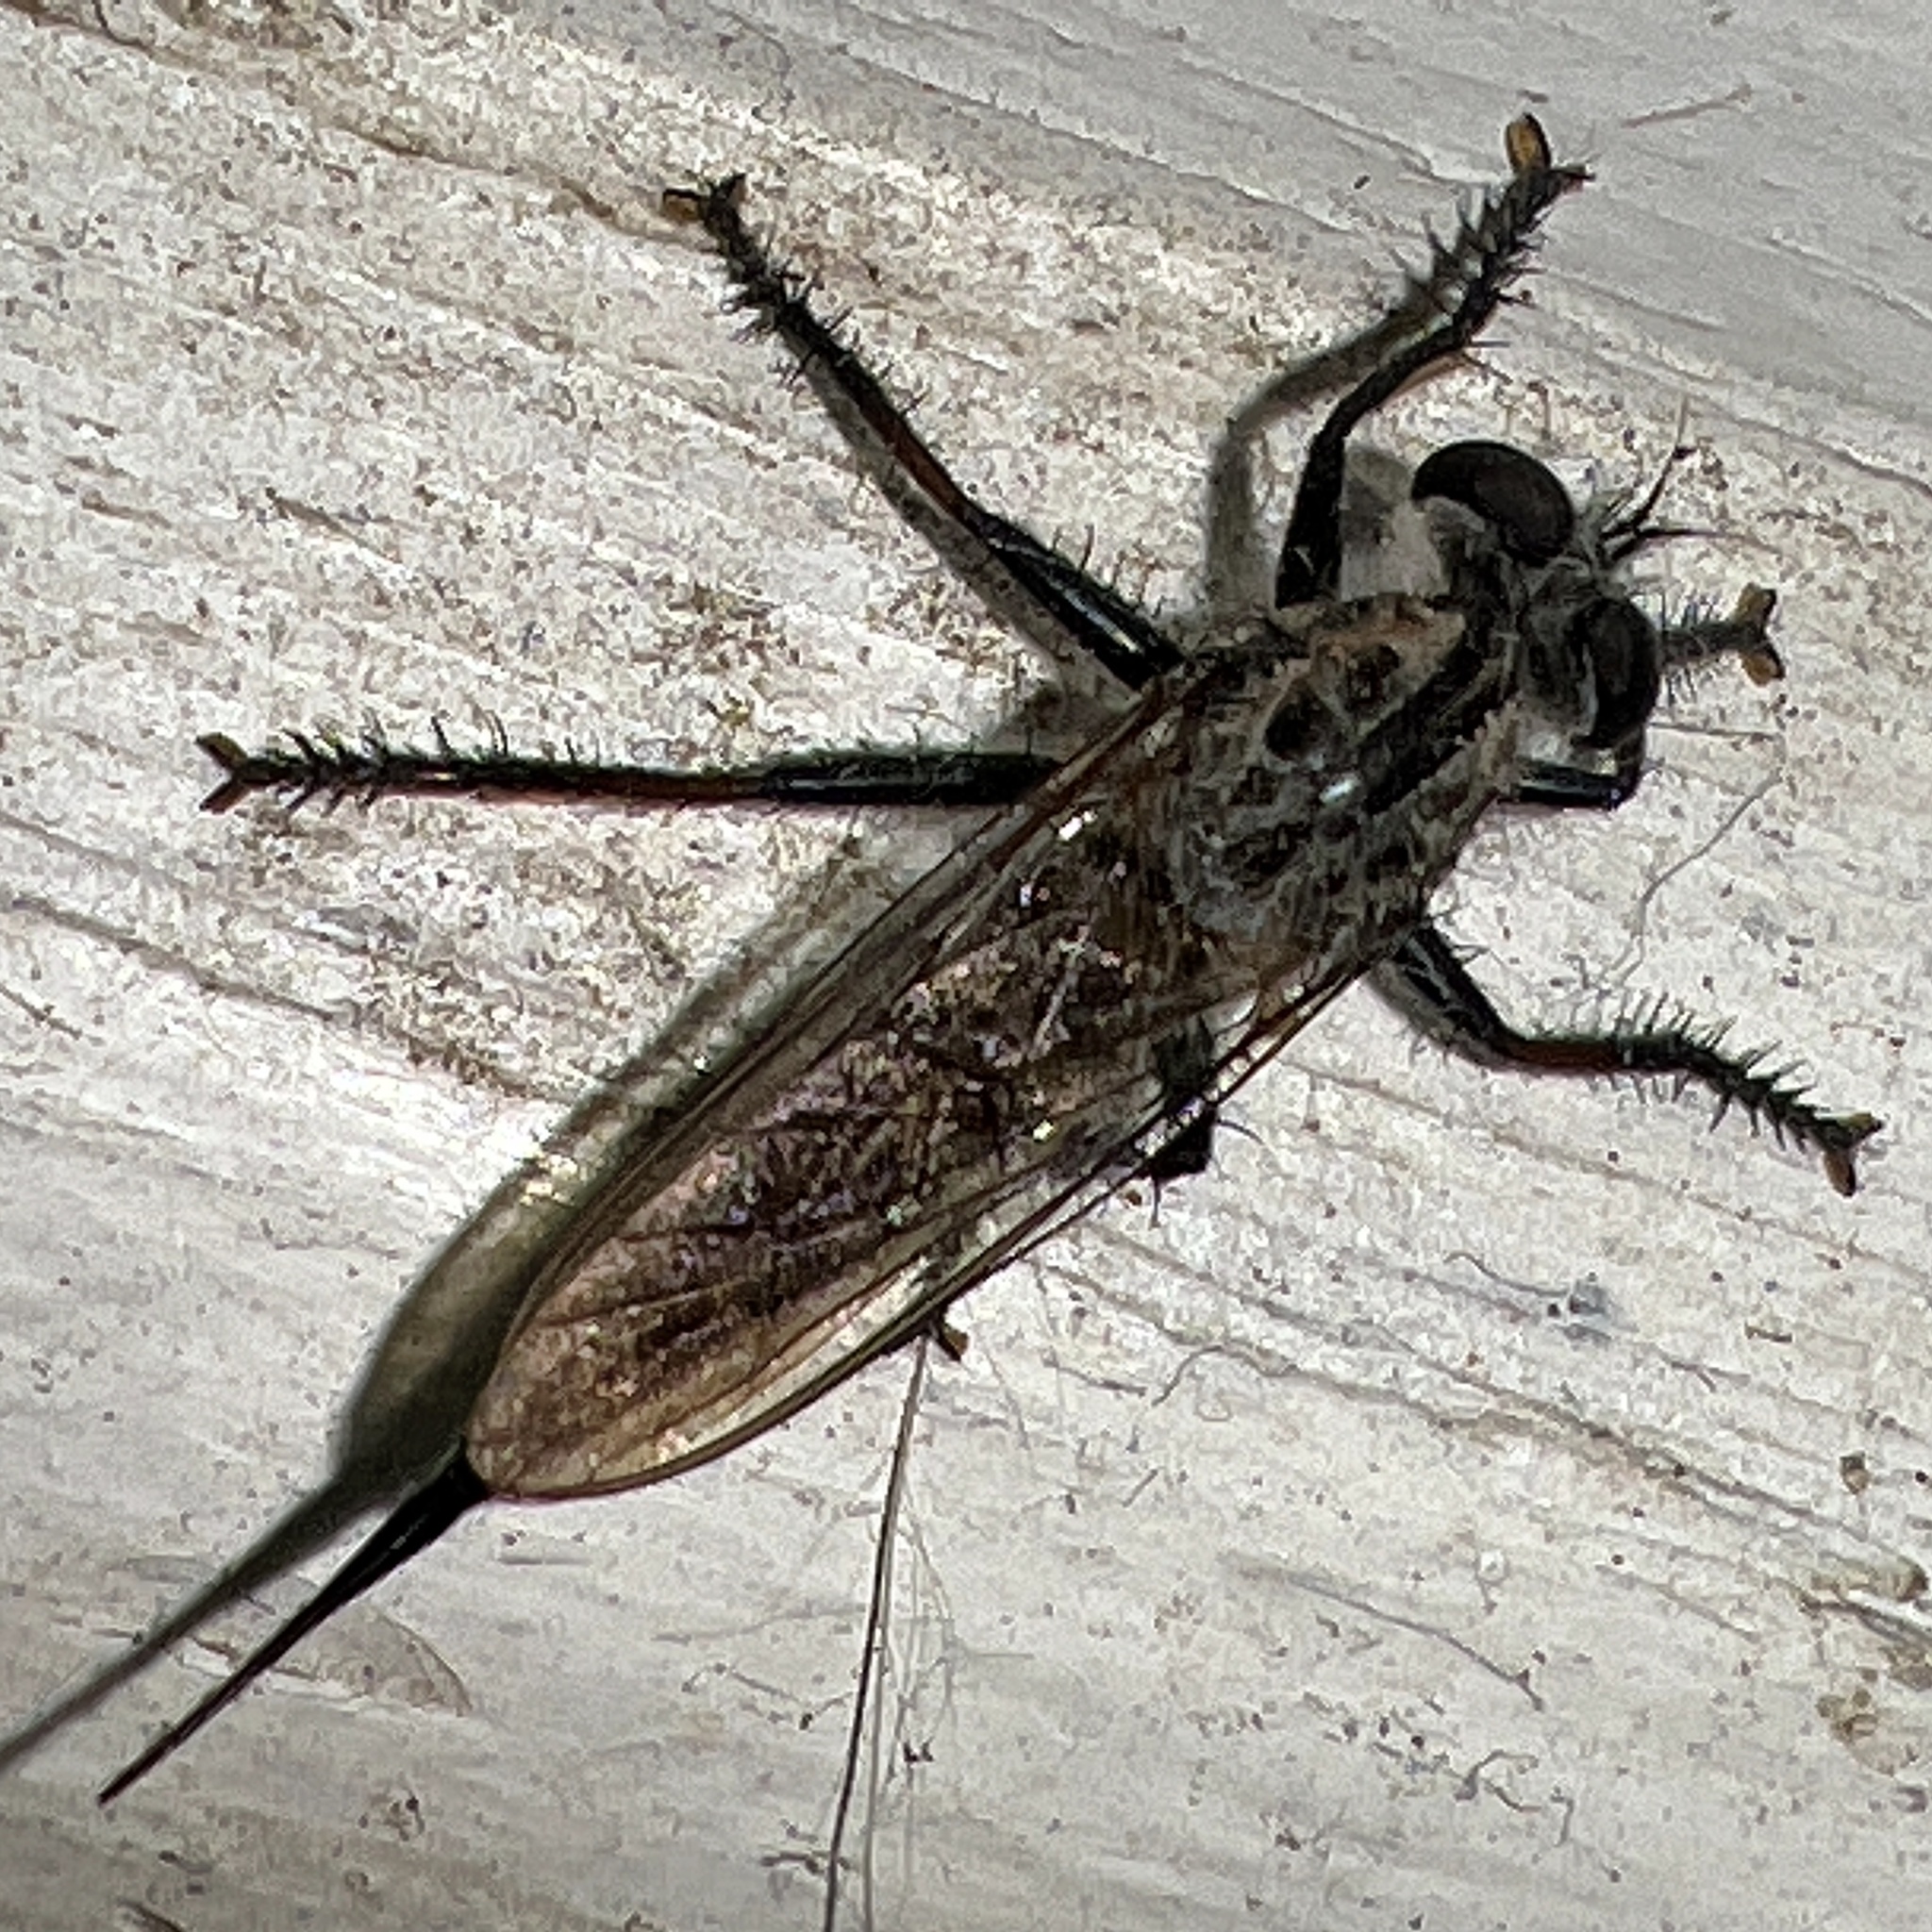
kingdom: Animalia
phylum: Arthropoda
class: Insecta
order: Diptera
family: Asilidae
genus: Efferia
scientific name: Efferia aestuans
